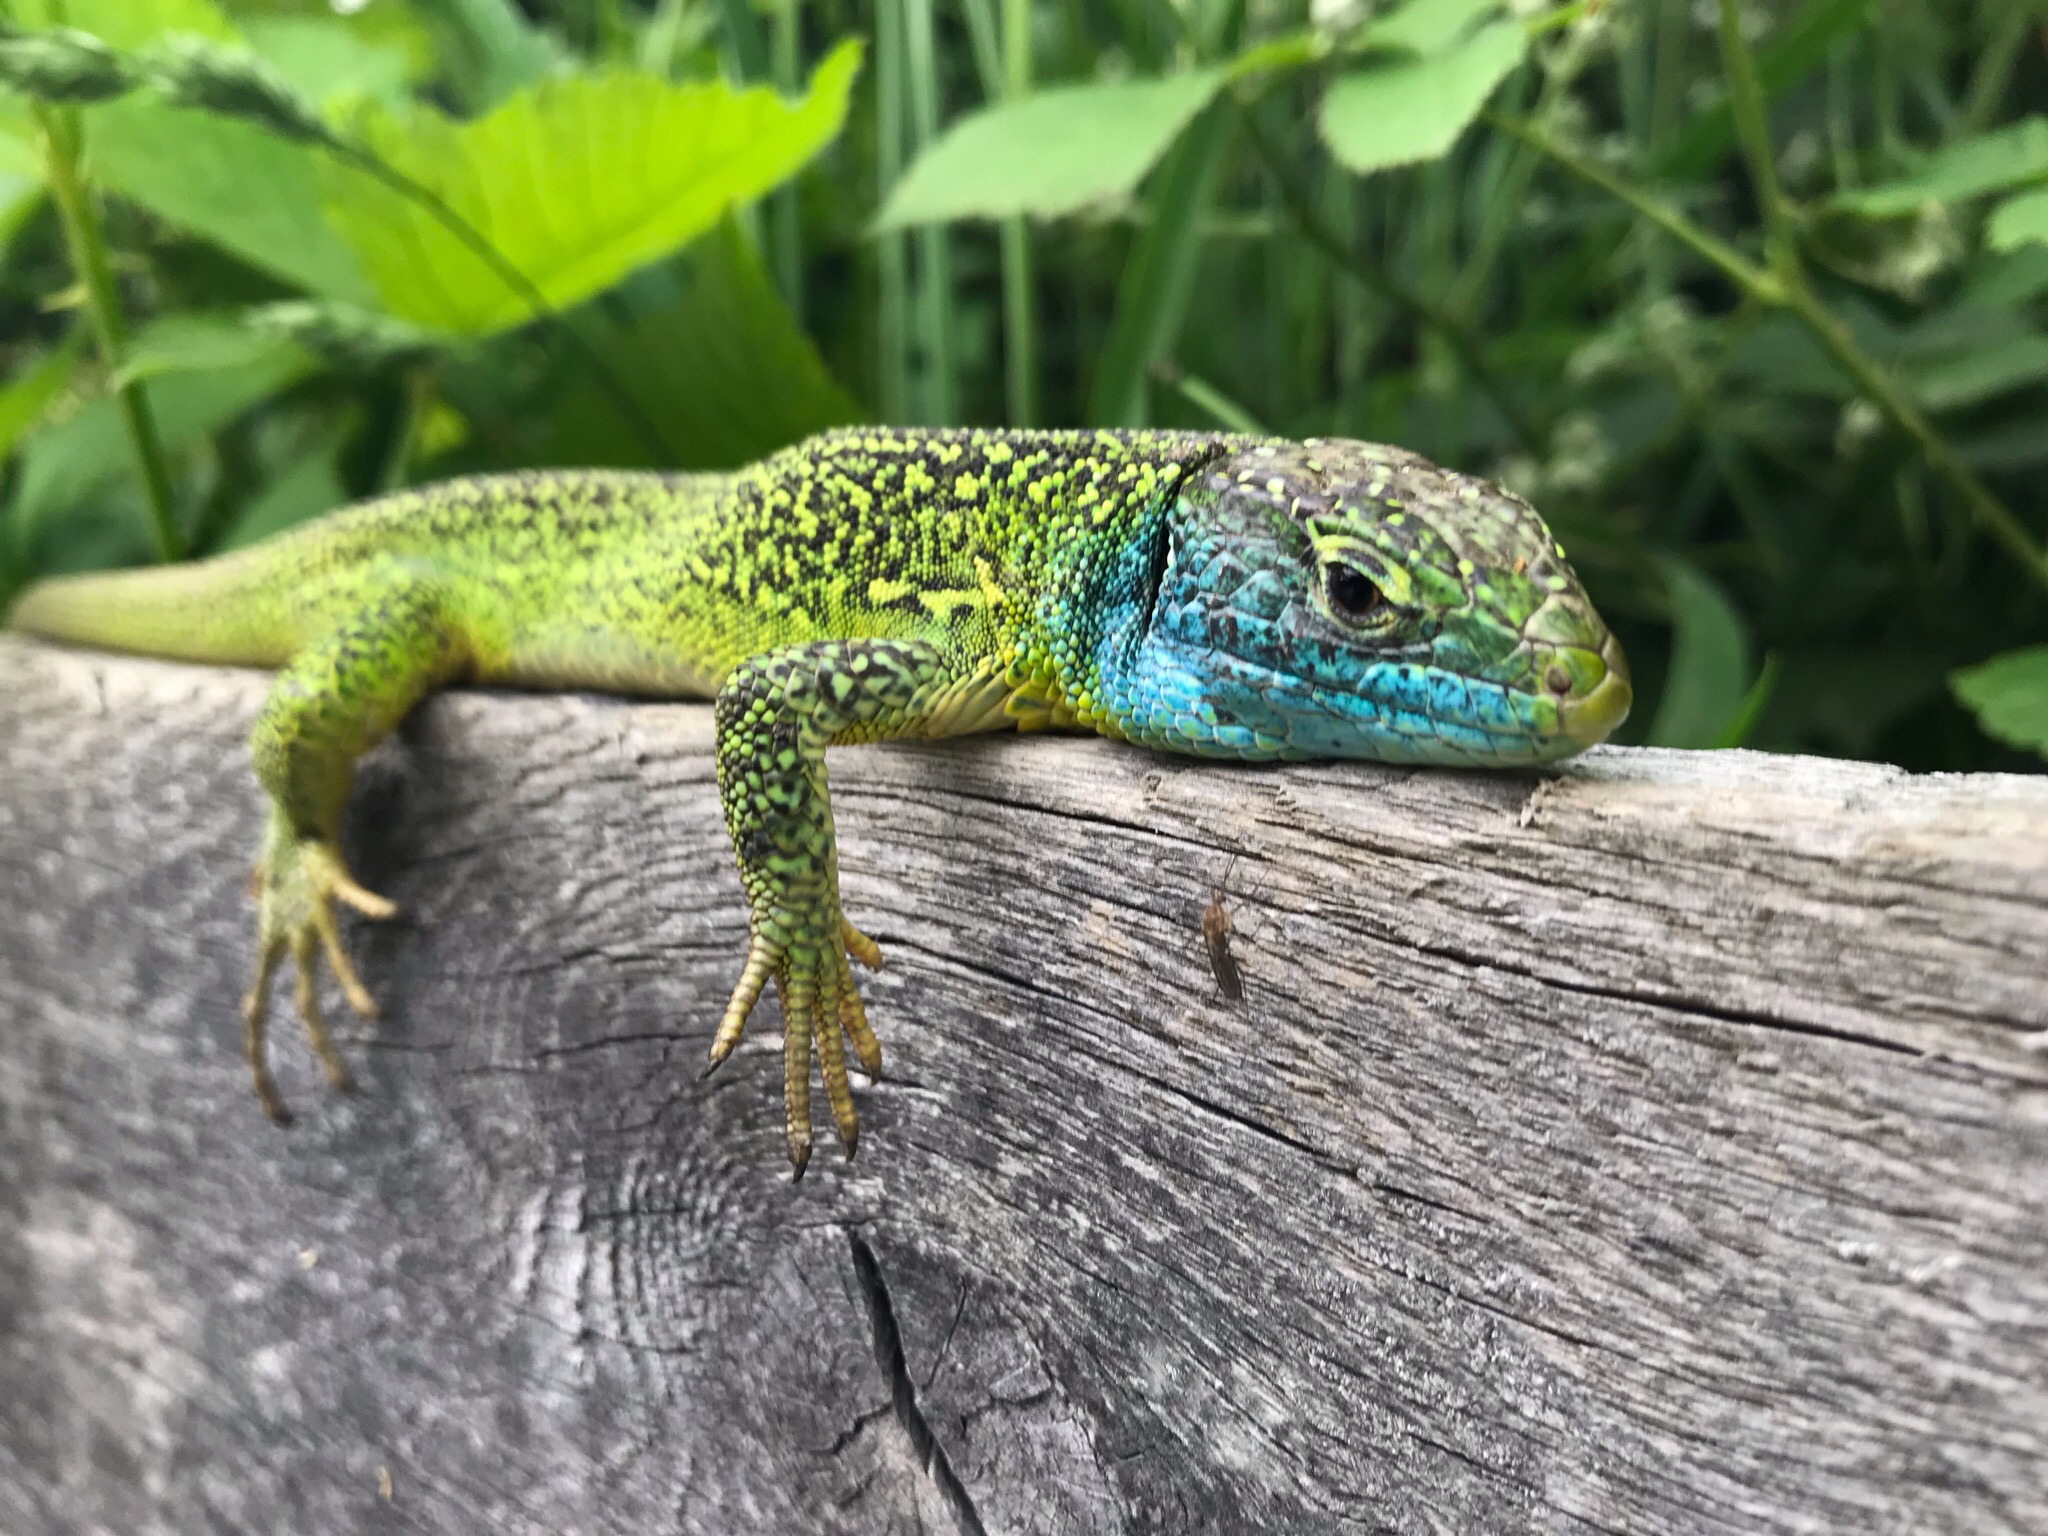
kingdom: Animalia
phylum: Chordata
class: Squamata
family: Lacertidae
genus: Lacerta
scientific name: Lacerta bilineata
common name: Western green lizard
